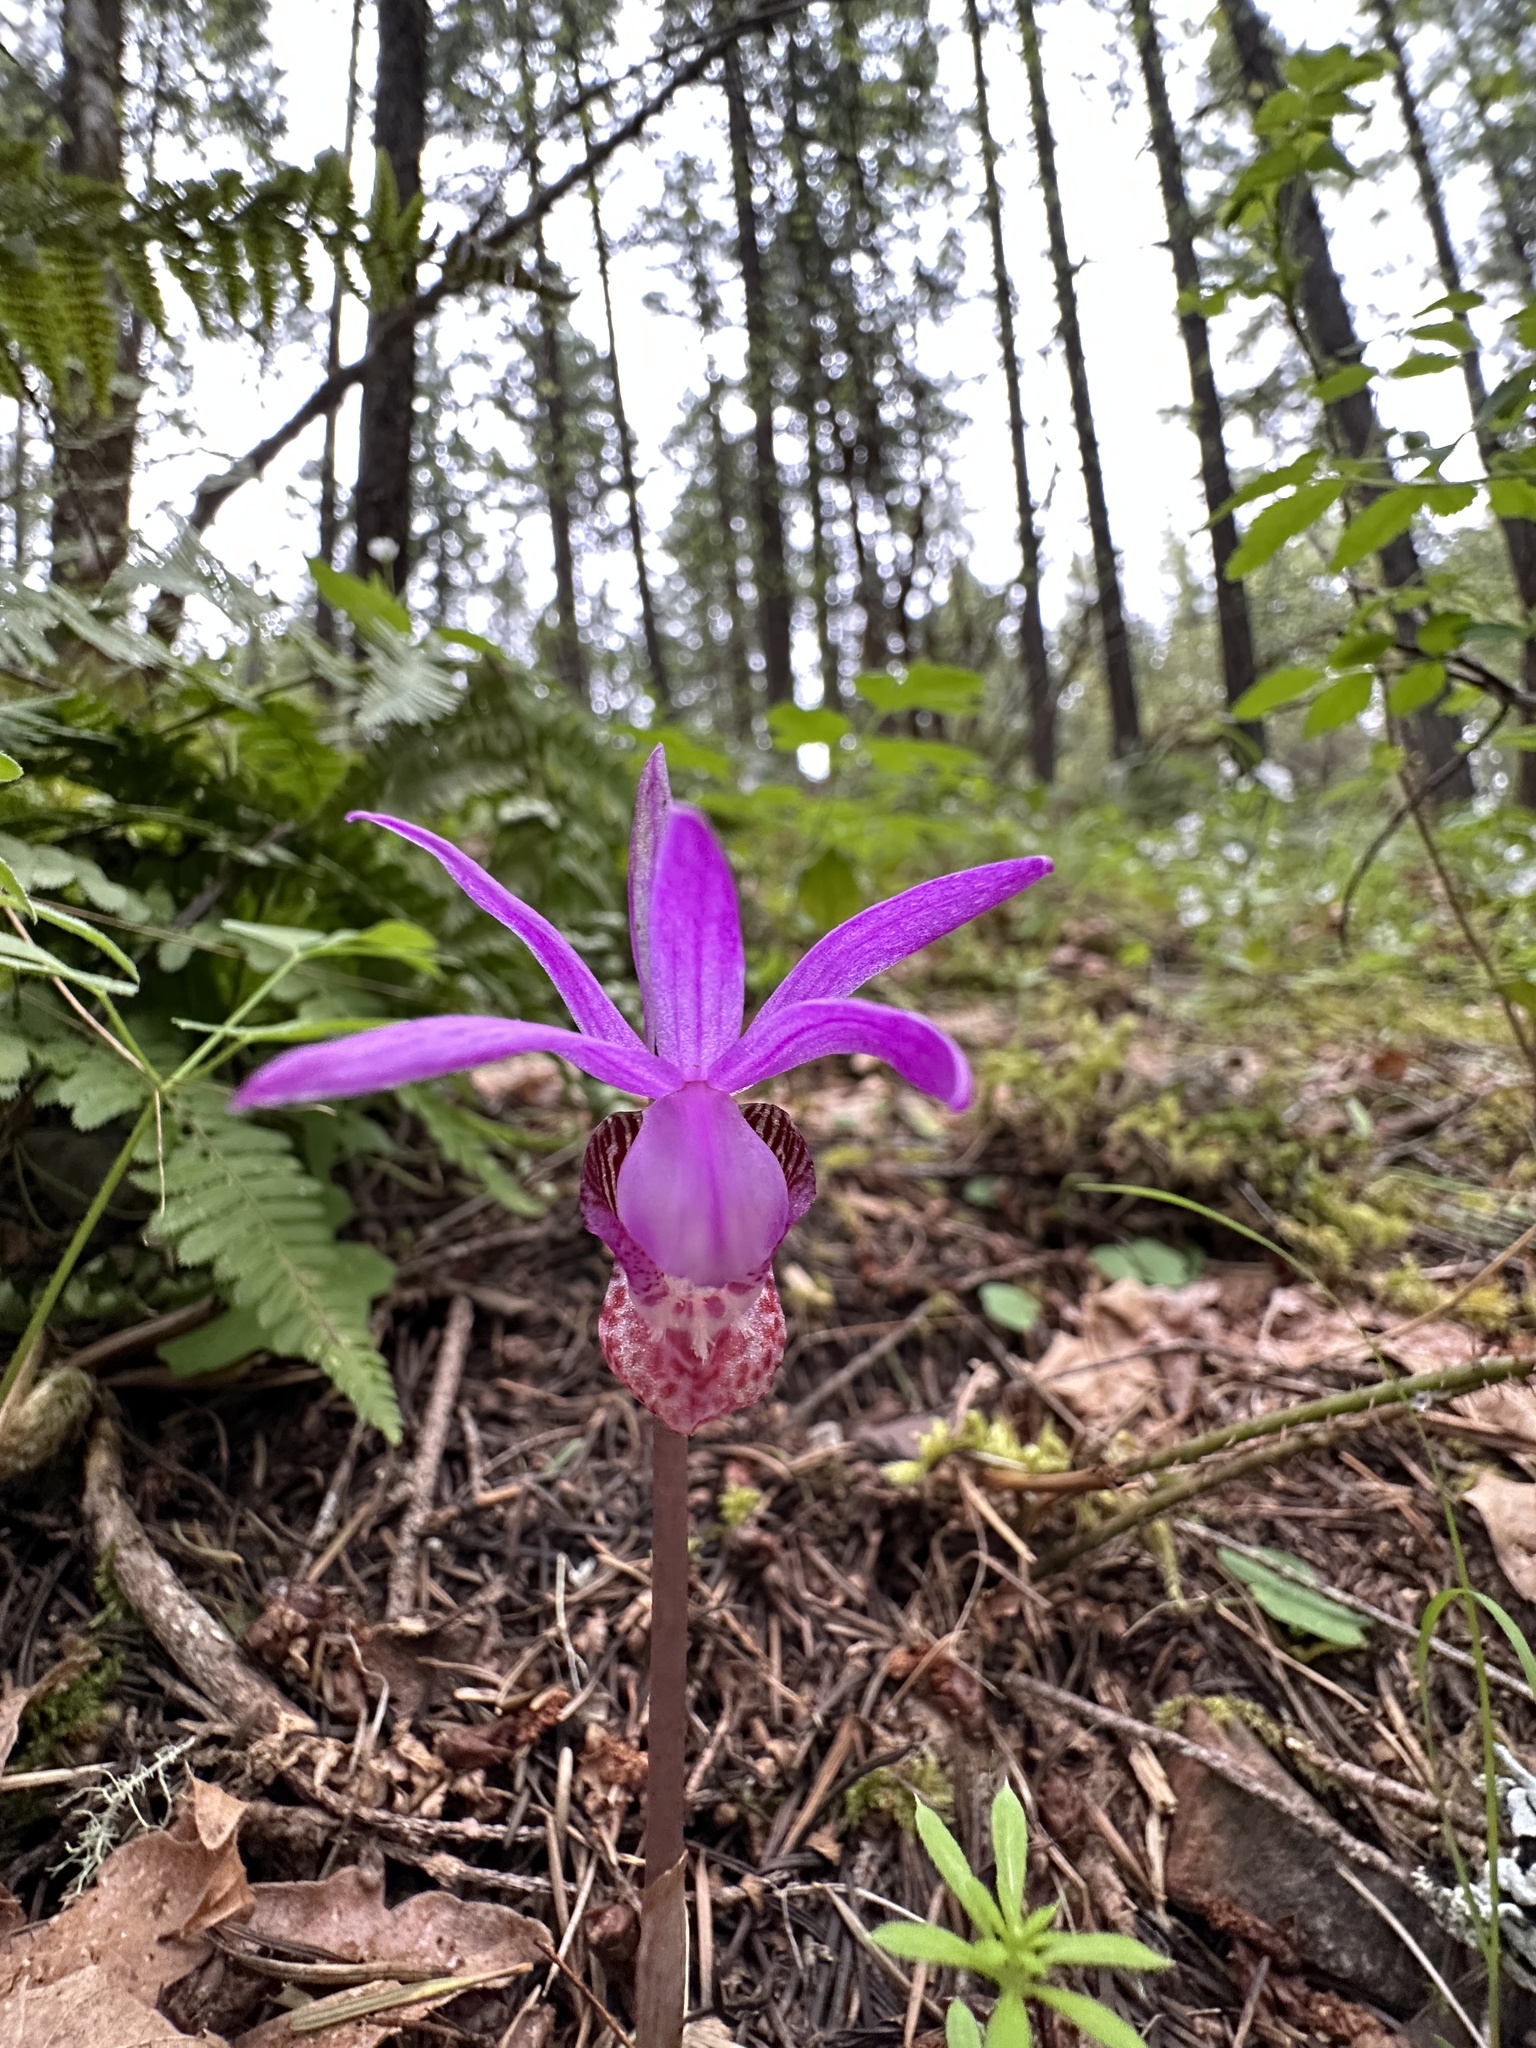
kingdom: Plantae
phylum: Tracheophyta
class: Liliopsida
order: Asparagales
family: Orchidaceae
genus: Calypso
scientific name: Calypso bulbosa
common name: Calypso
